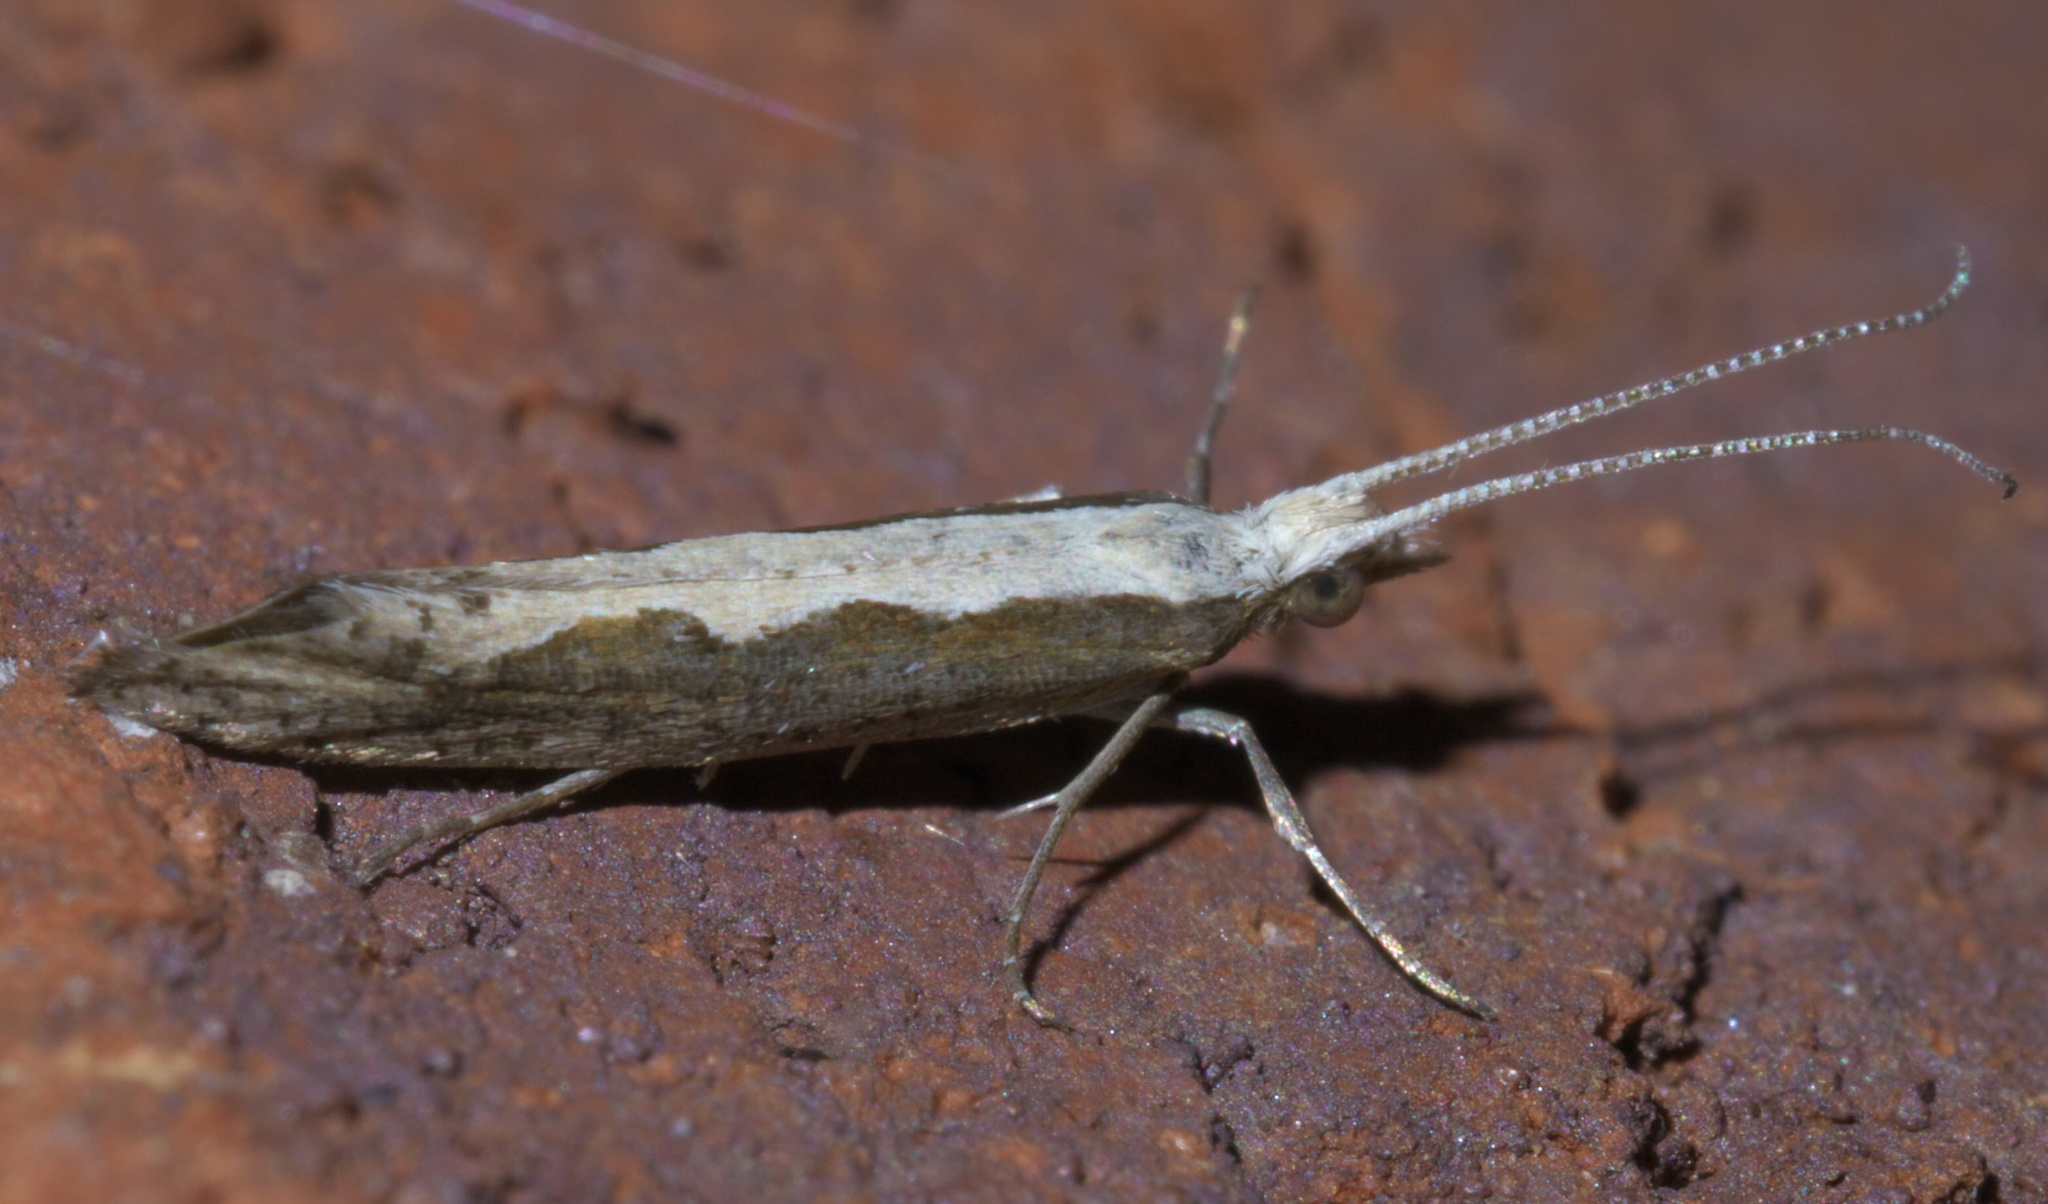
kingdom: Animalia
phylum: Arthropoda
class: Insecta
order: Lepidoptera
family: Plutellidae
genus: Plutella
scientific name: Plutella xylostella
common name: Diamond-back moth
